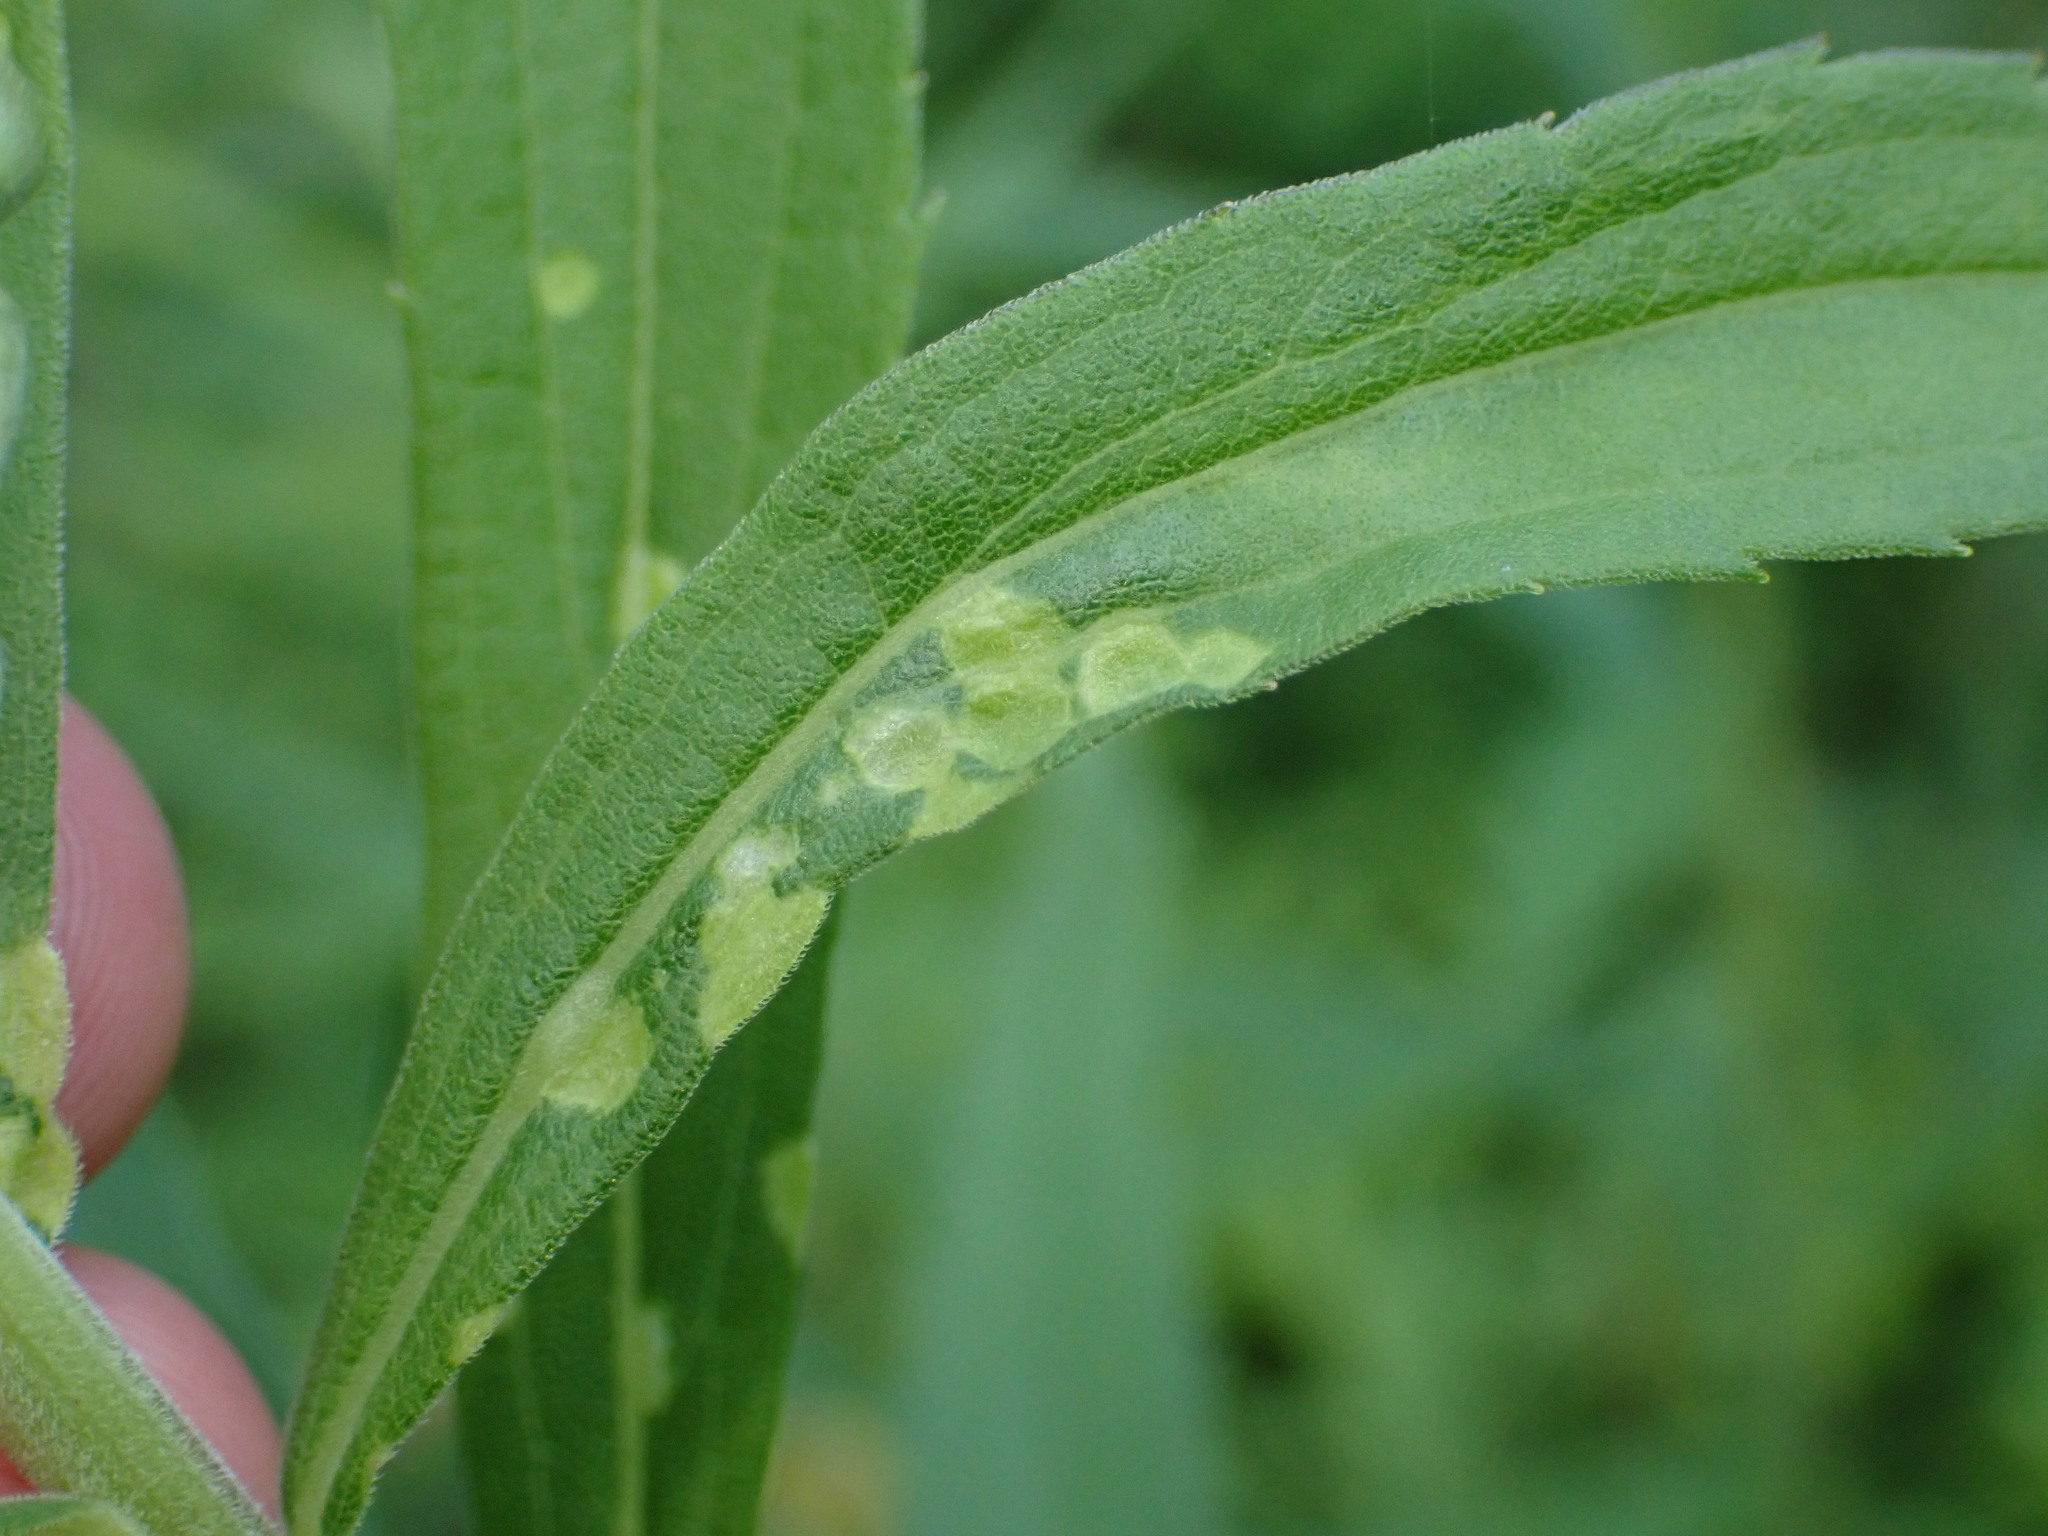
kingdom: Animalia
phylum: Arthropoda
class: Insecta
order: Diptera
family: Cecidomyiidae
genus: Dasineura
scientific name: Dasineura folliculi
